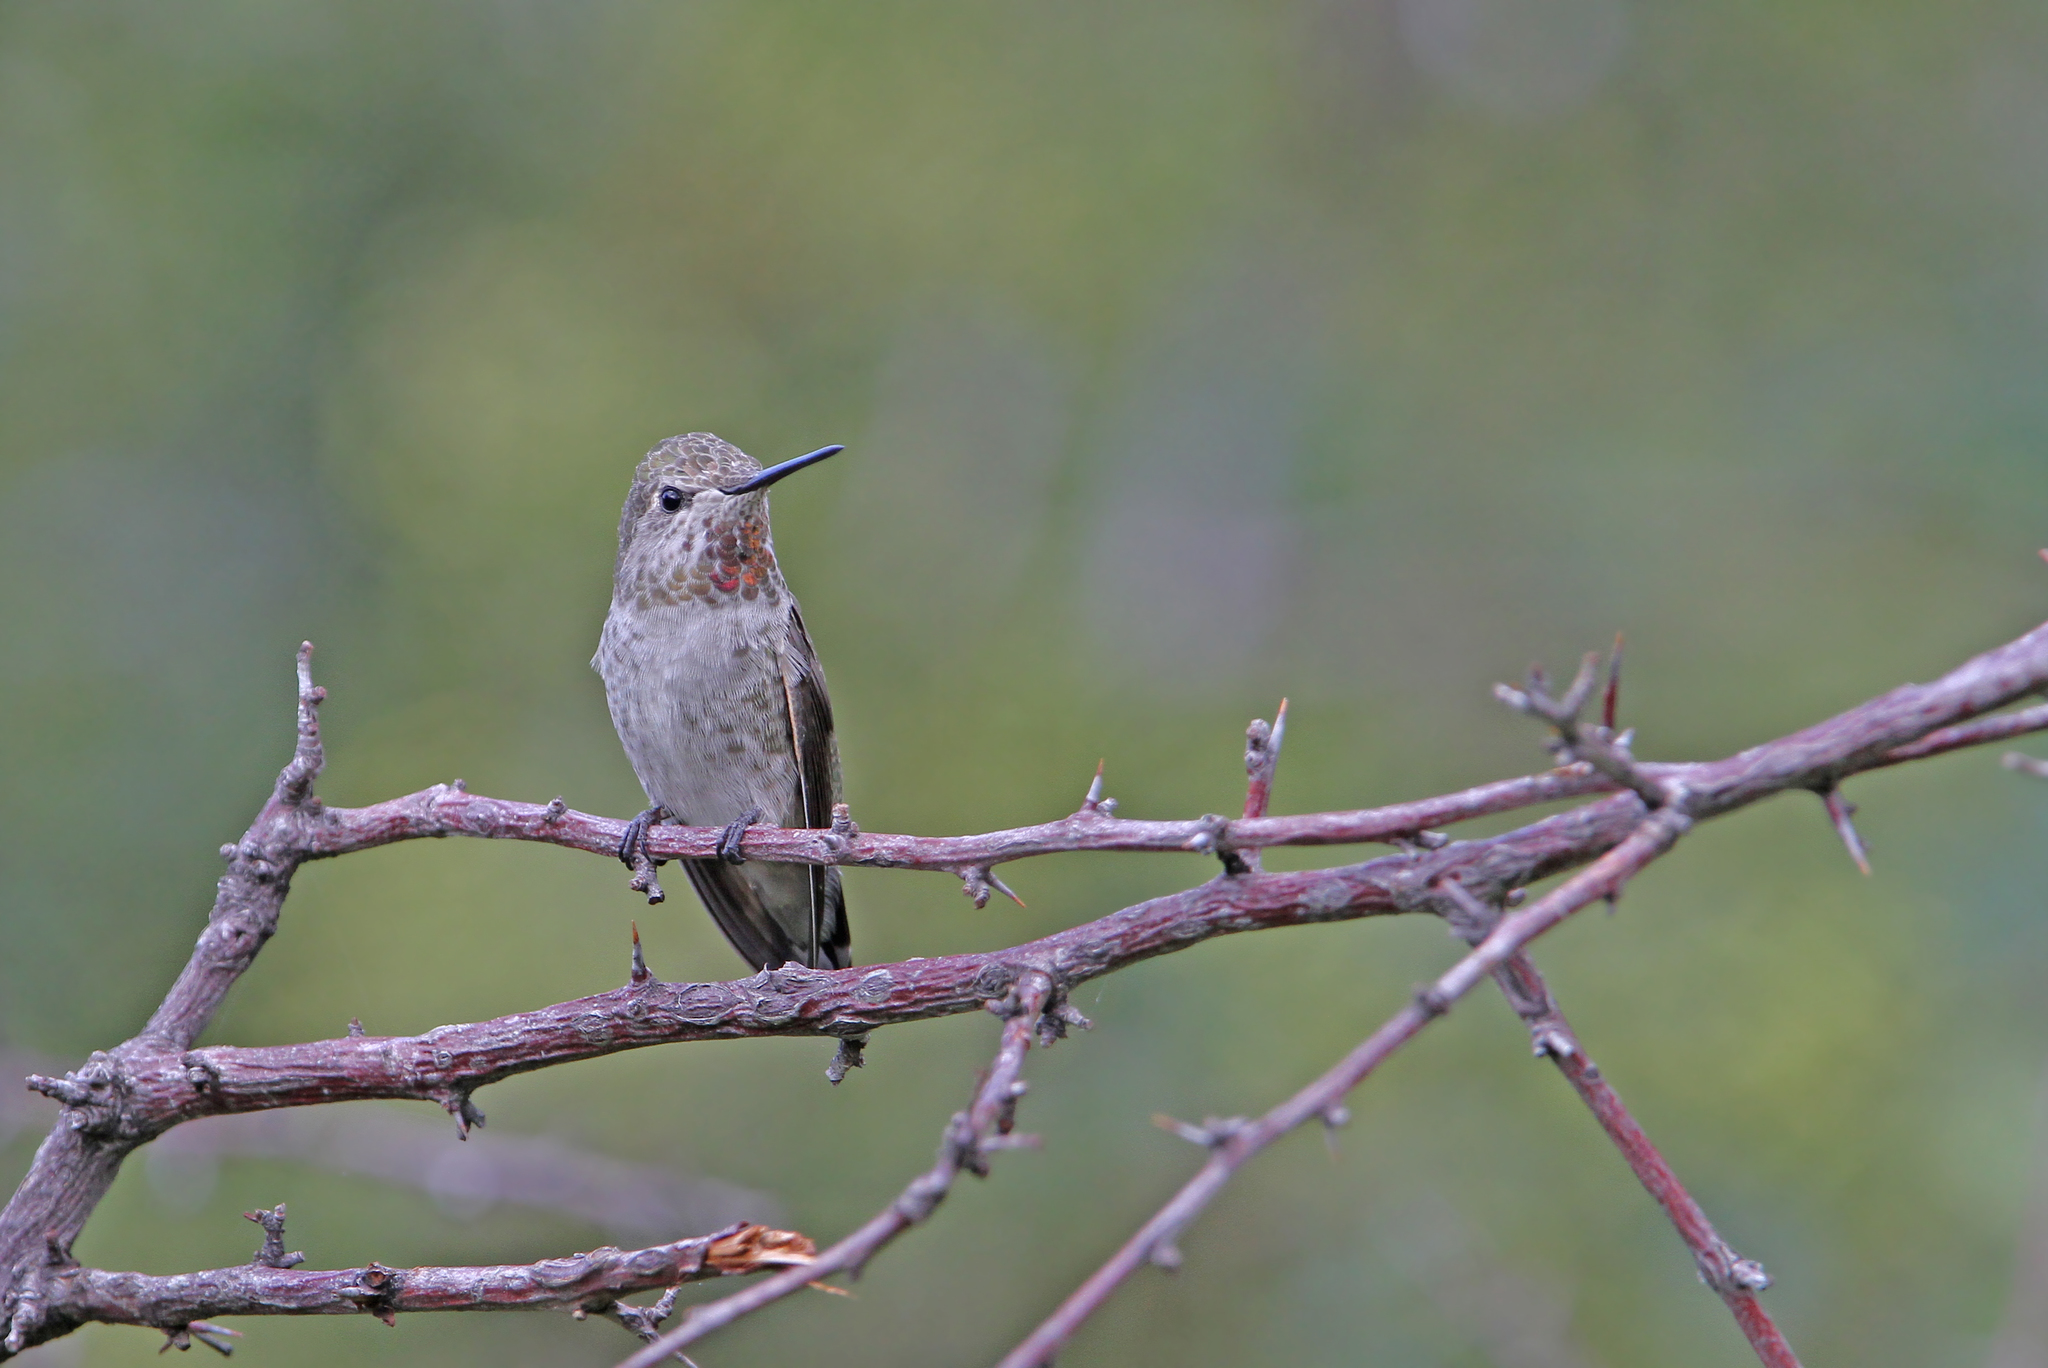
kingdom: Animalia
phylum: Chordata
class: Aves
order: Apodiformes
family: Trochilidae
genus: Calypte
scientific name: Calypte anna
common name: Anna's hummingbird
